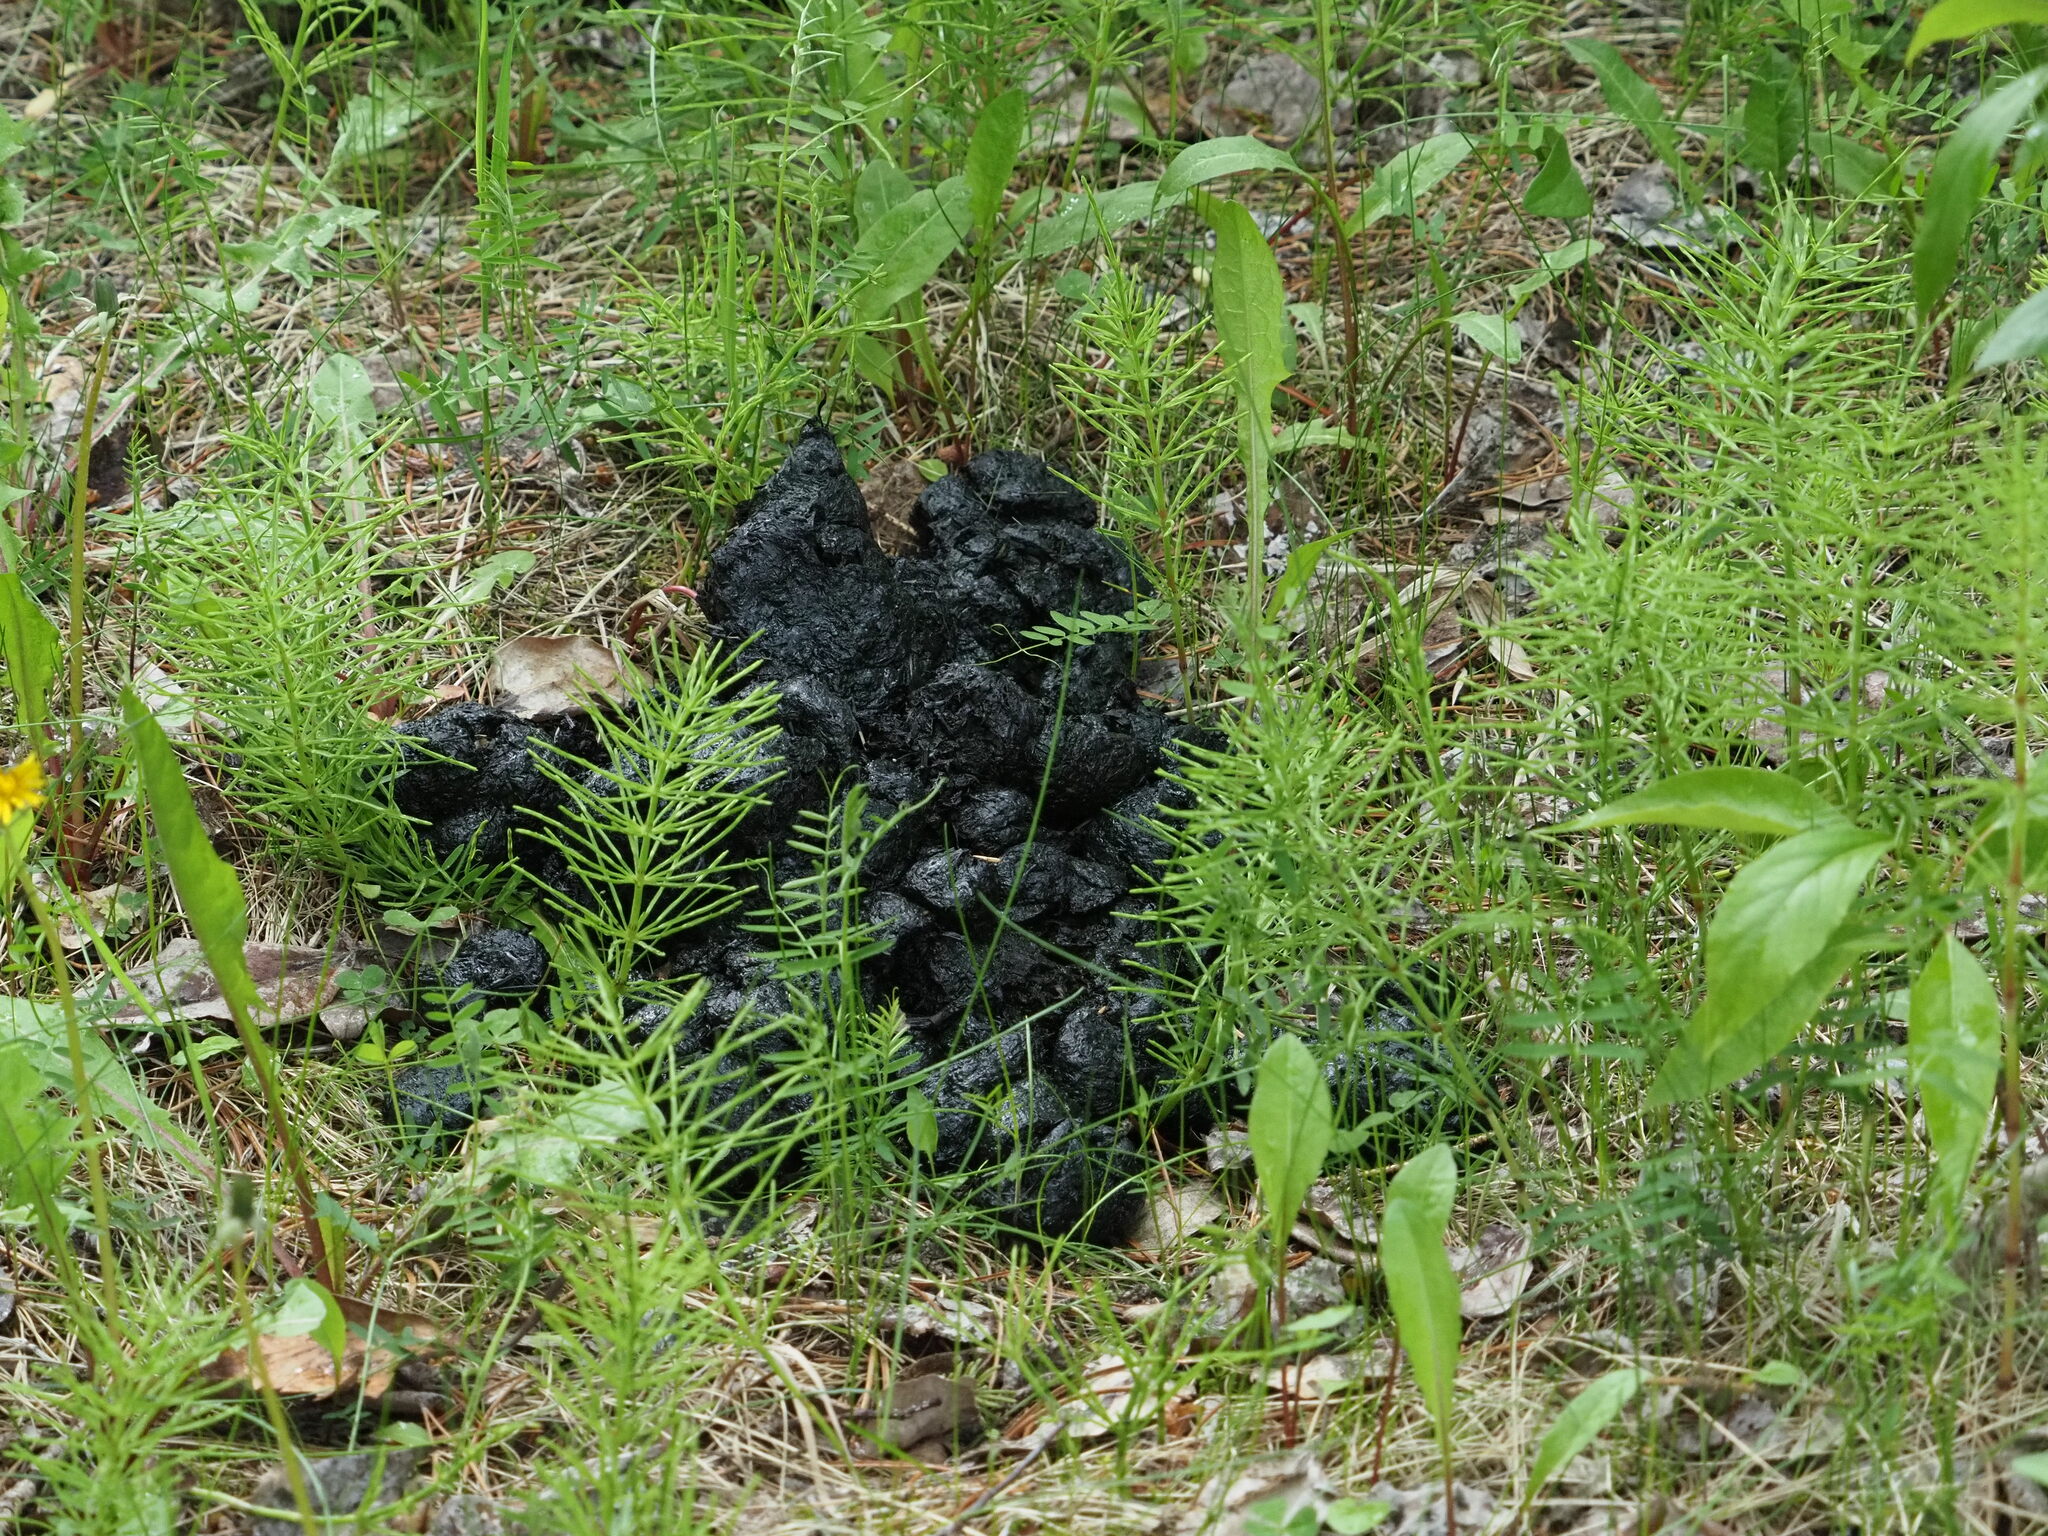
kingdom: Animalia
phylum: Chordata
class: Mammalia
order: Carnivora
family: Ursidae
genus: Ursus
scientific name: Ursus americanus
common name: American black bear
